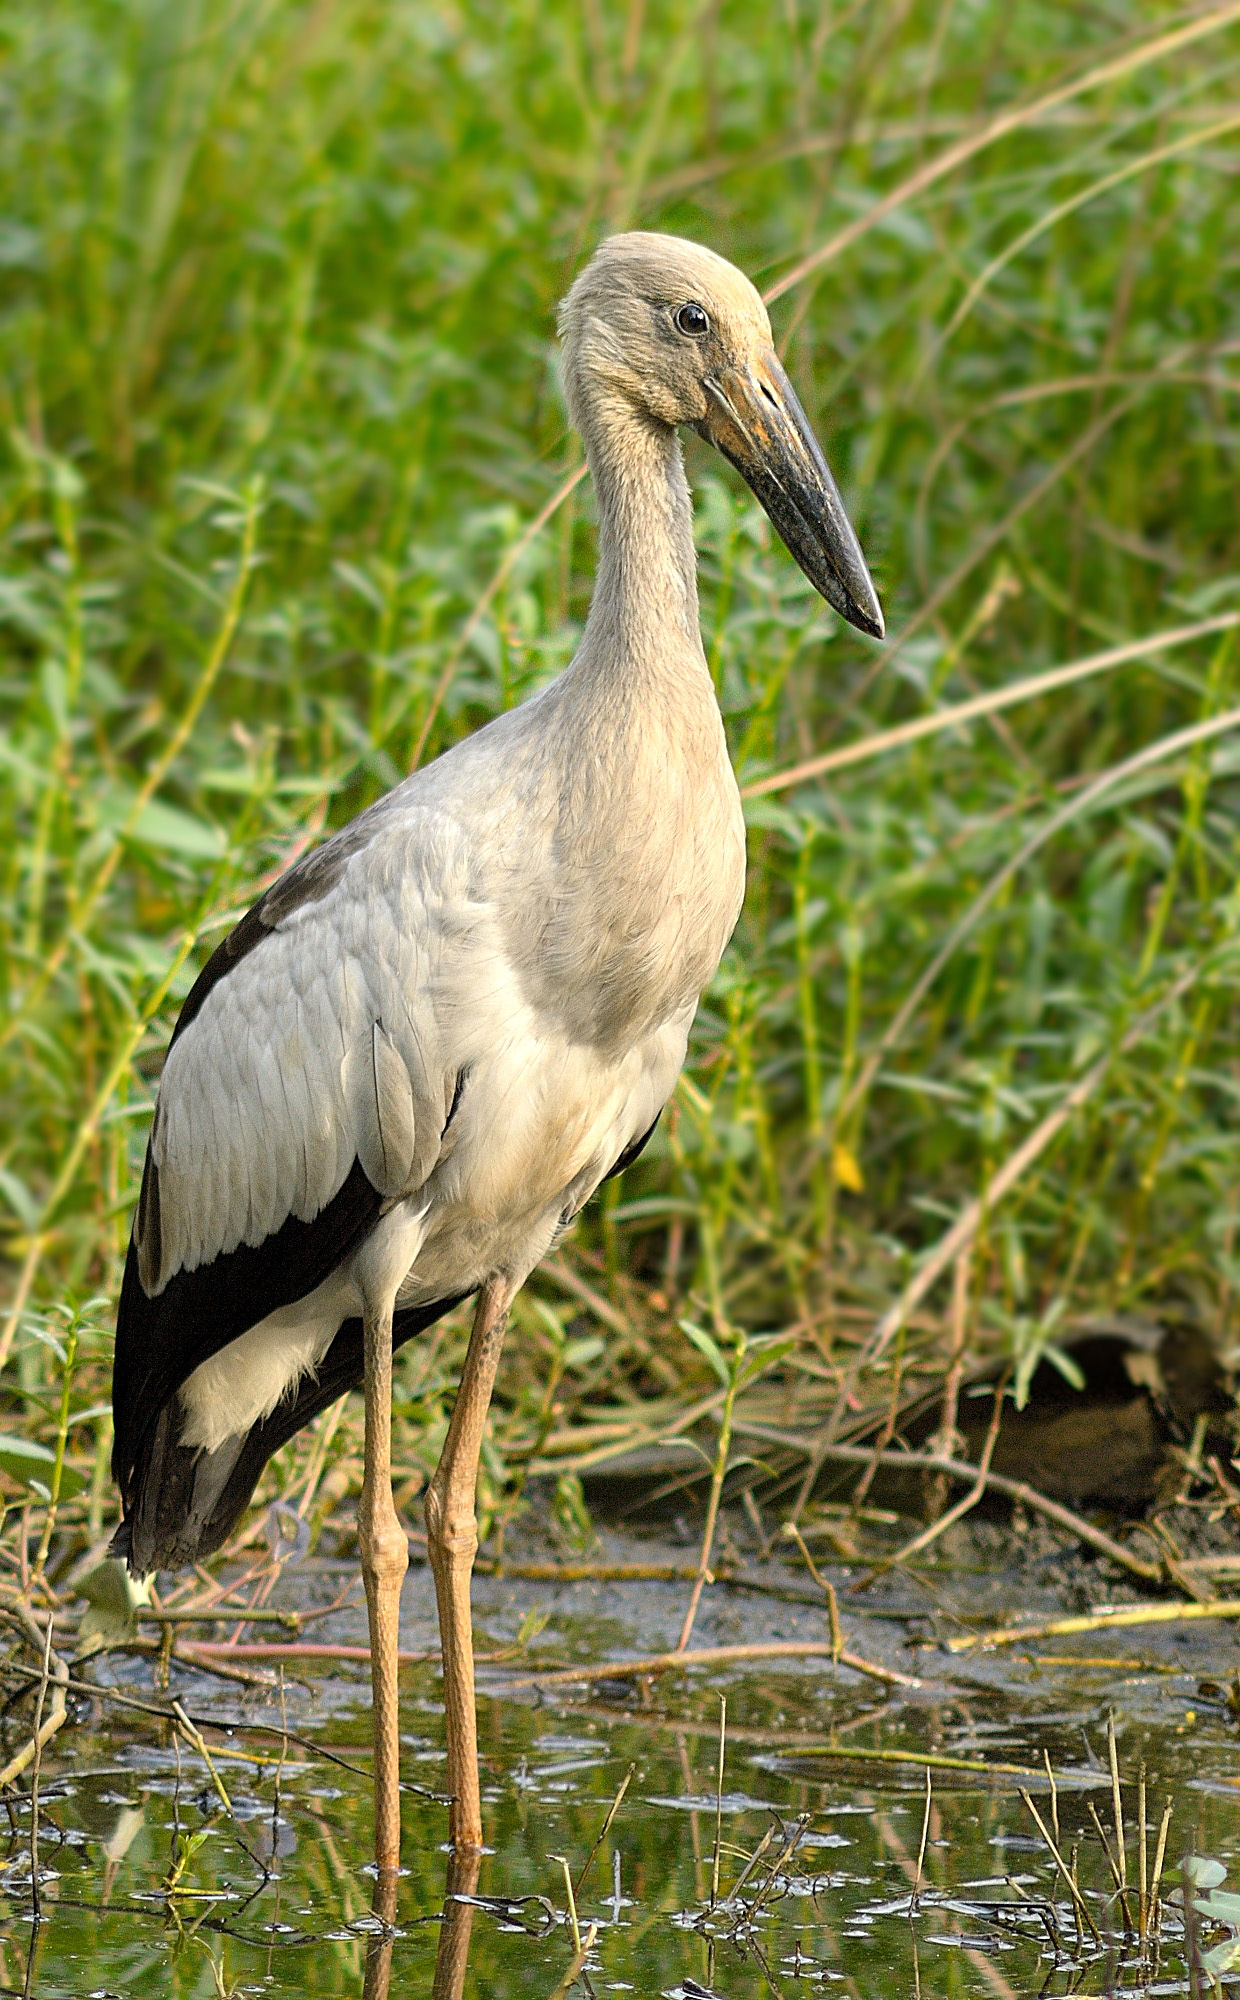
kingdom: Animalia
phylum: Chordata
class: Aves
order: Ciconiiformes
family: Ciconiidae
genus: Anastomus
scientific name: Anastomus oscitans
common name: Asian openbill
